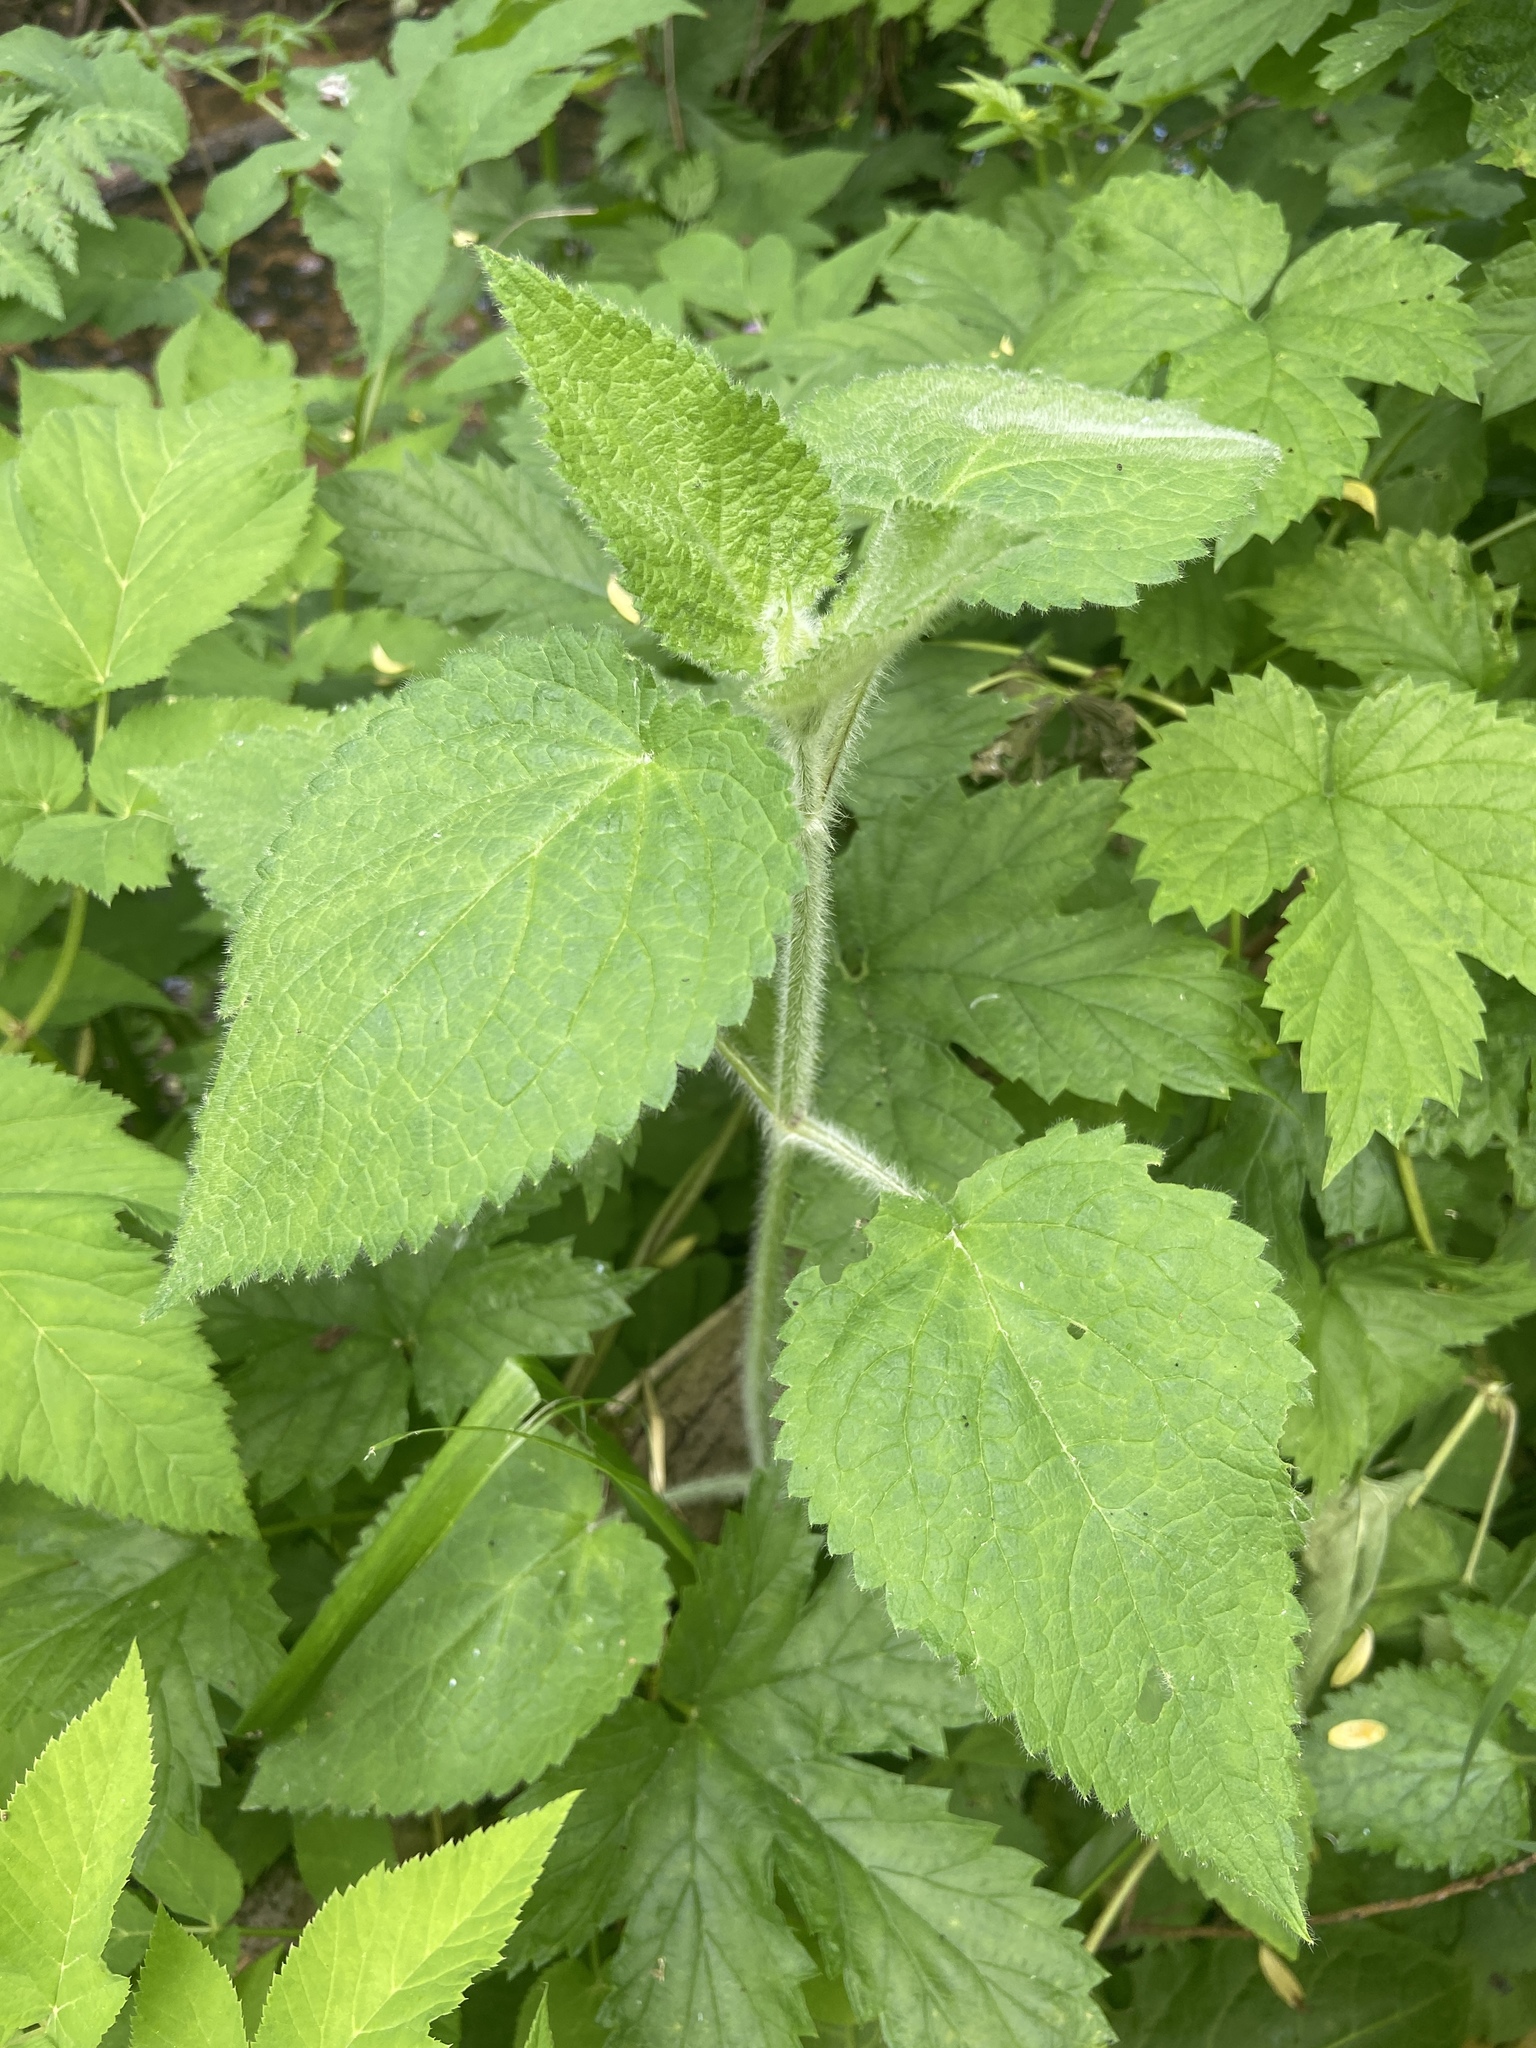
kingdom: Plantae
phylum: Tracheophyta
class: Magnoliopsida
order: Lamiales
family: Lamiaceae
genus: Stachys
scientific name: Stachys sylvatica
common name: Hedge woundwort
